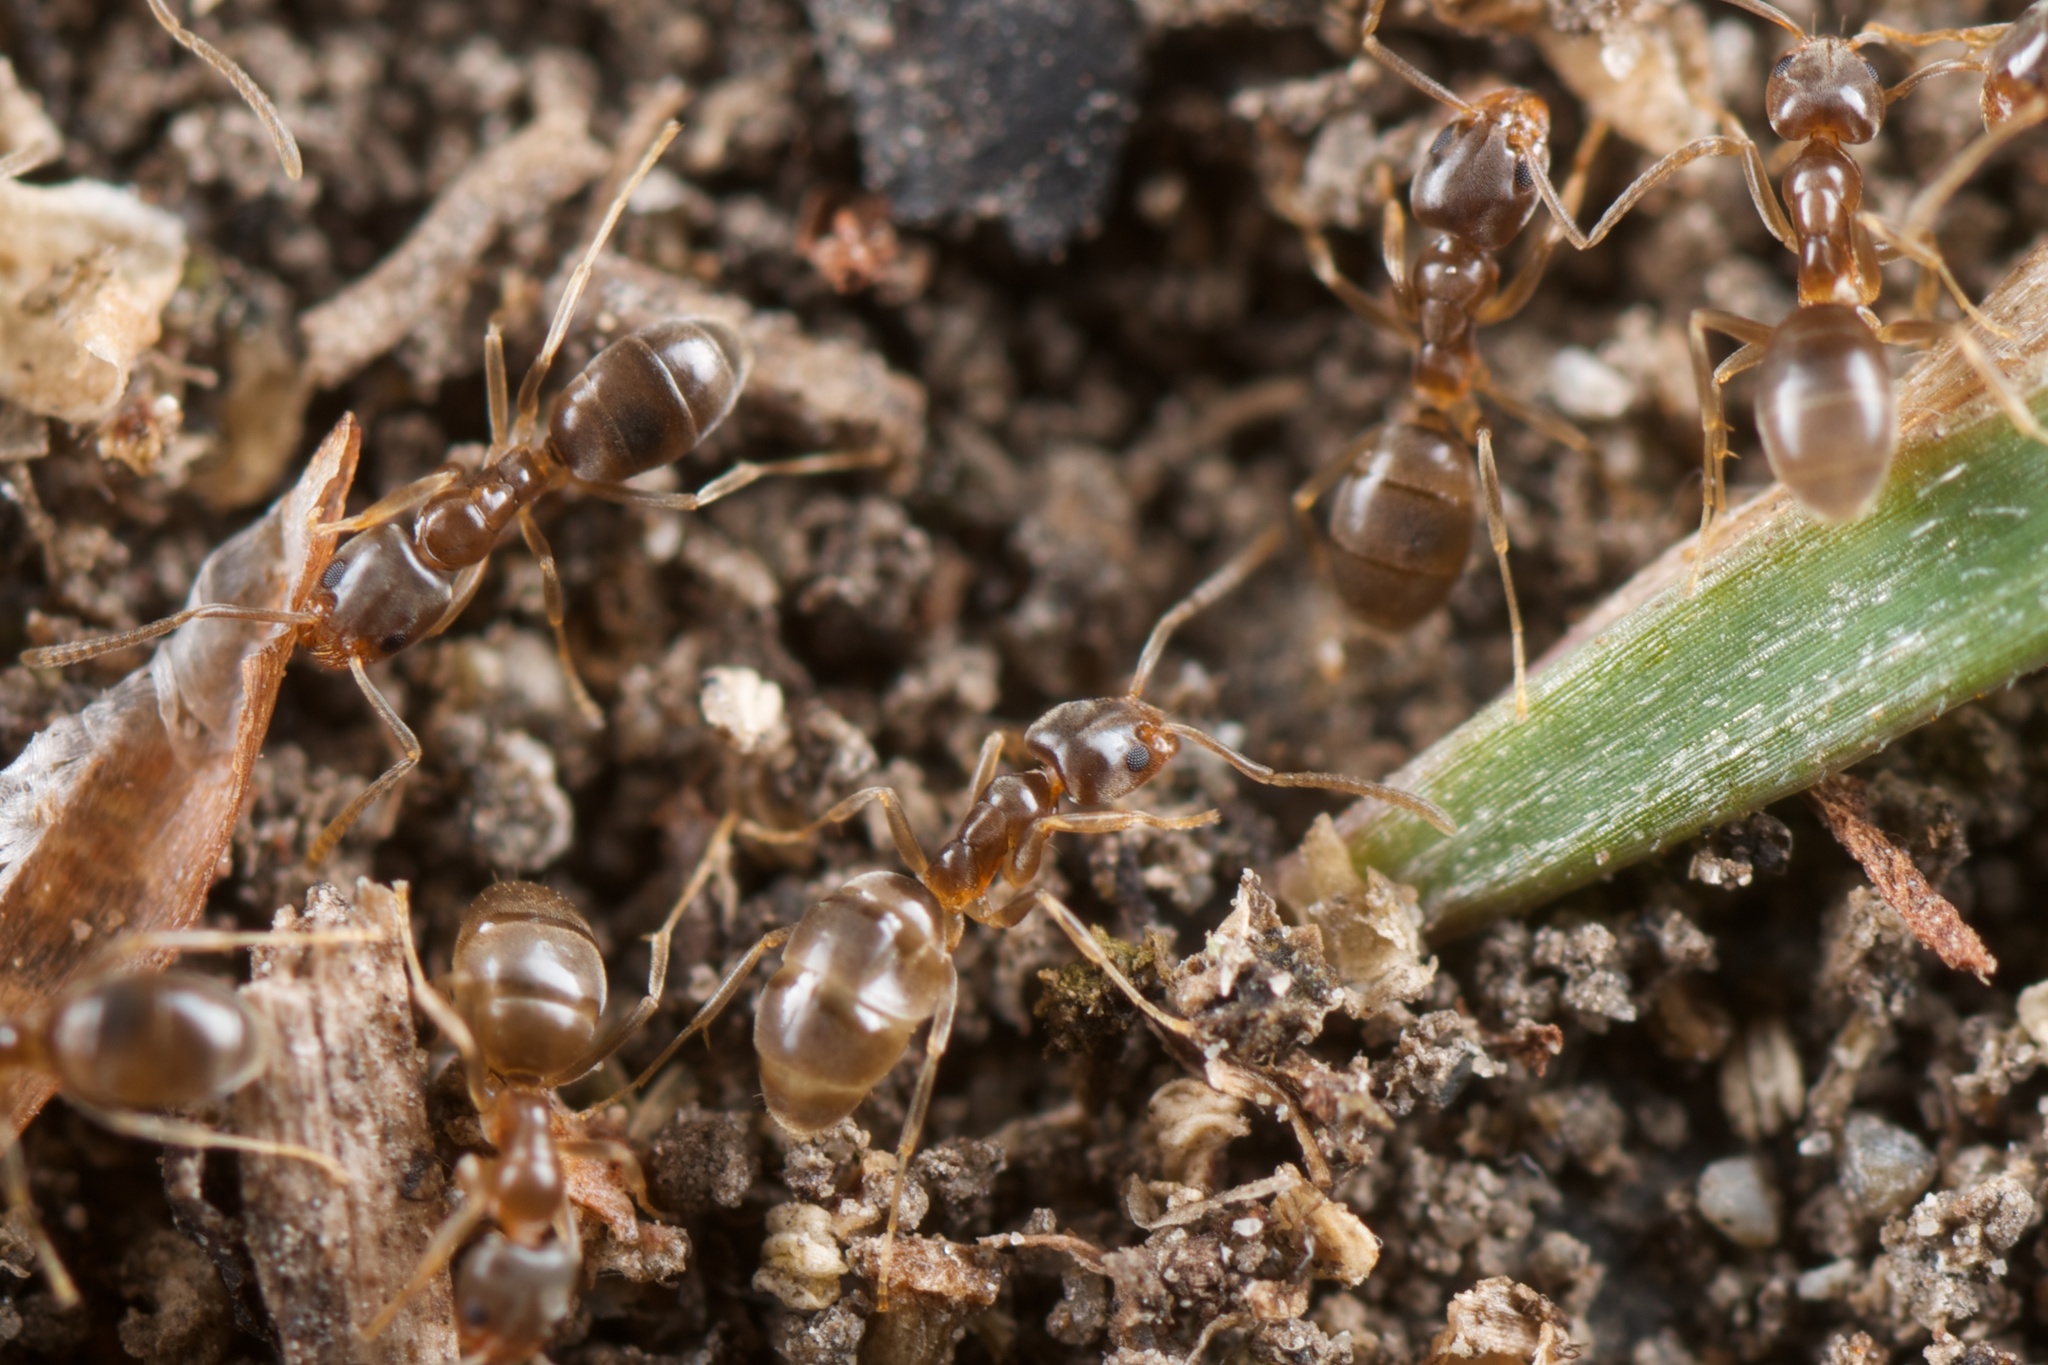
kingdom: Animalia
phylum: Arthropoda
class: Insecta
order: Hymenoptera
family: Formicidae
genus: Doleromyrma
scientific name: Doleromyrma darwiniana
